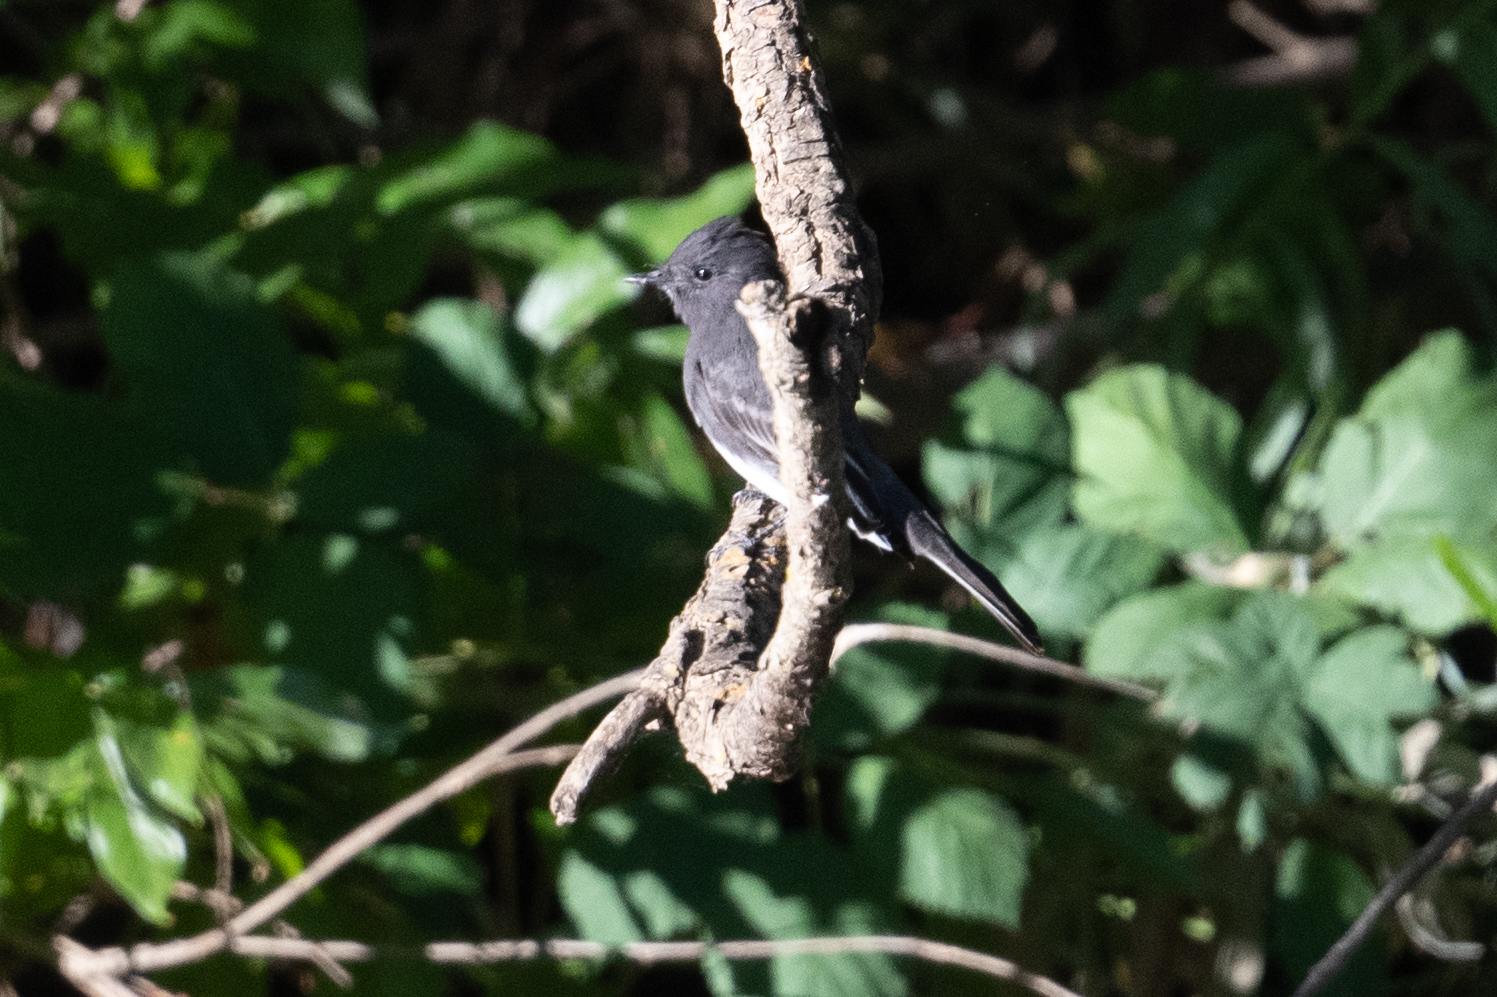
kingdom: Animalia
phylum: Chordata
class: Aves
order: Passeriformes
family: Tyrannidae
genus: Sayornis
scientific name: Sayornis nigricans
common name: Black phoebe
